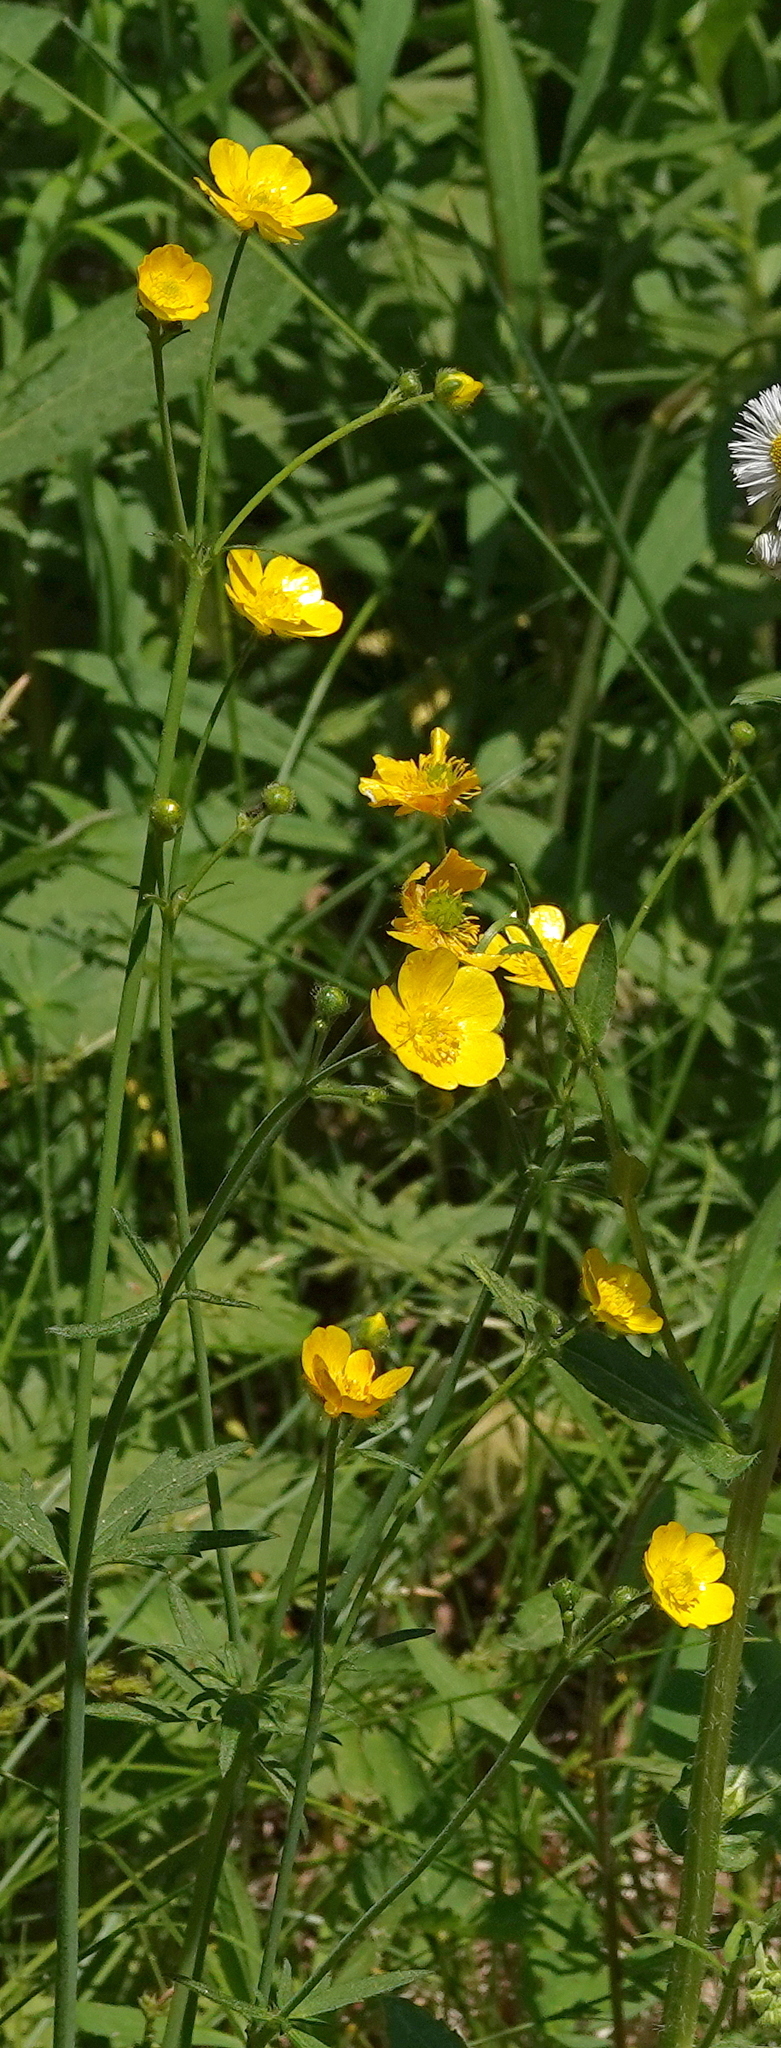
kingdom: Plantae
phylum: Tracheophyta
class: Magnoliopsida
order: Ranunculales
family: Ranunculaceae
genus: Ranunculus
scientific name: Ranunculus acris
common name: Meadow buttercup
